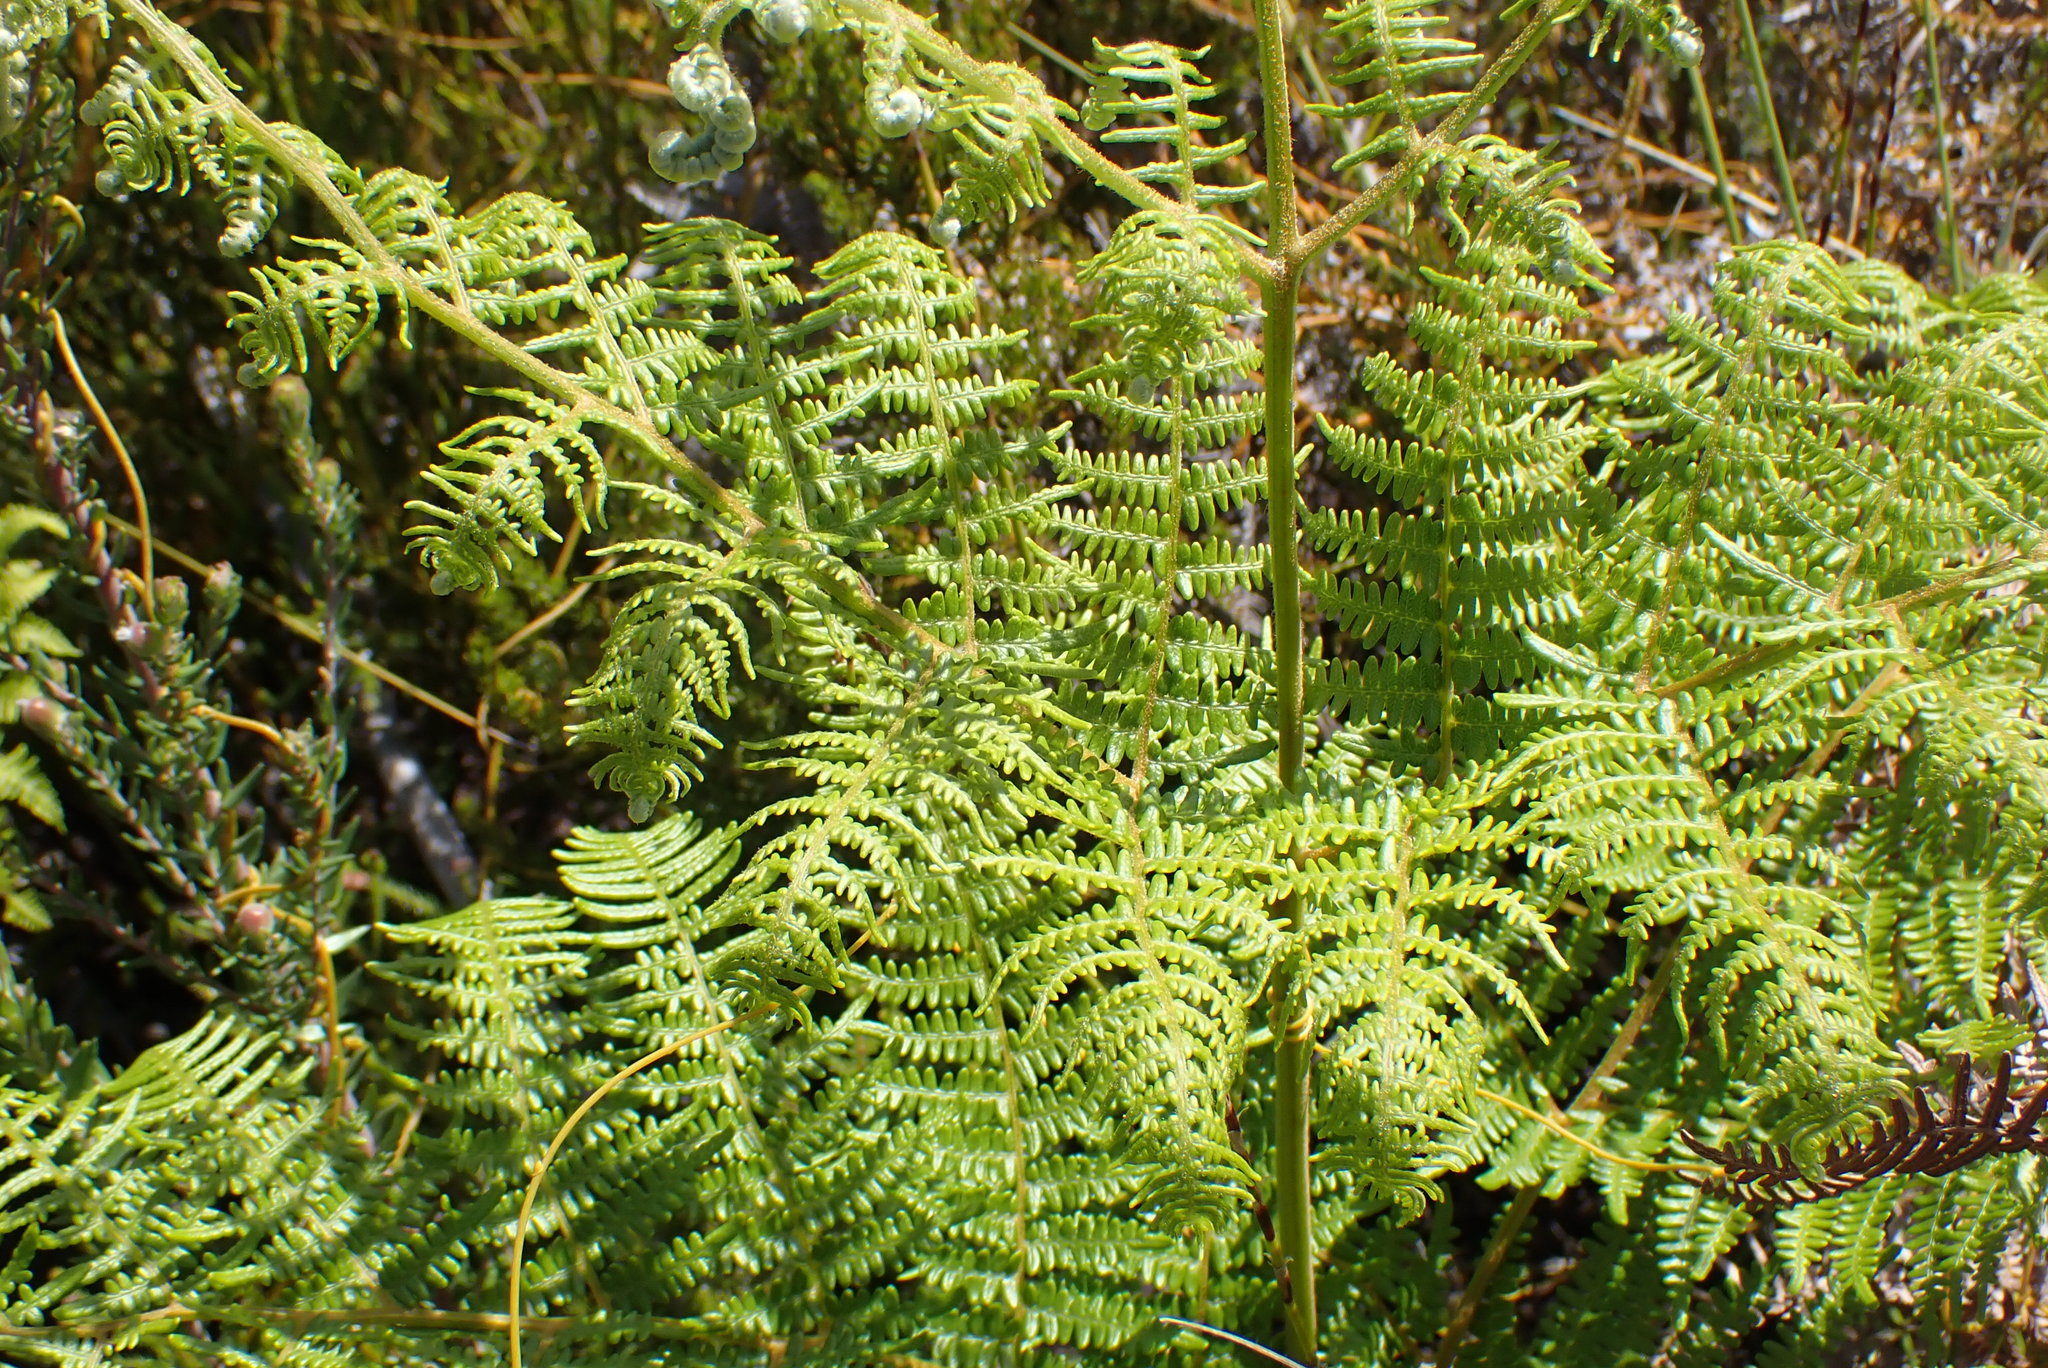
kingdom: Plantae
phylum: Tracheophyta
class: Polypodiopsida
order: Polypodiales
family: Dennstaedtiaceae
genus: Pteridium
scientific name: Pteridium aquilinum
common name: Bracken
